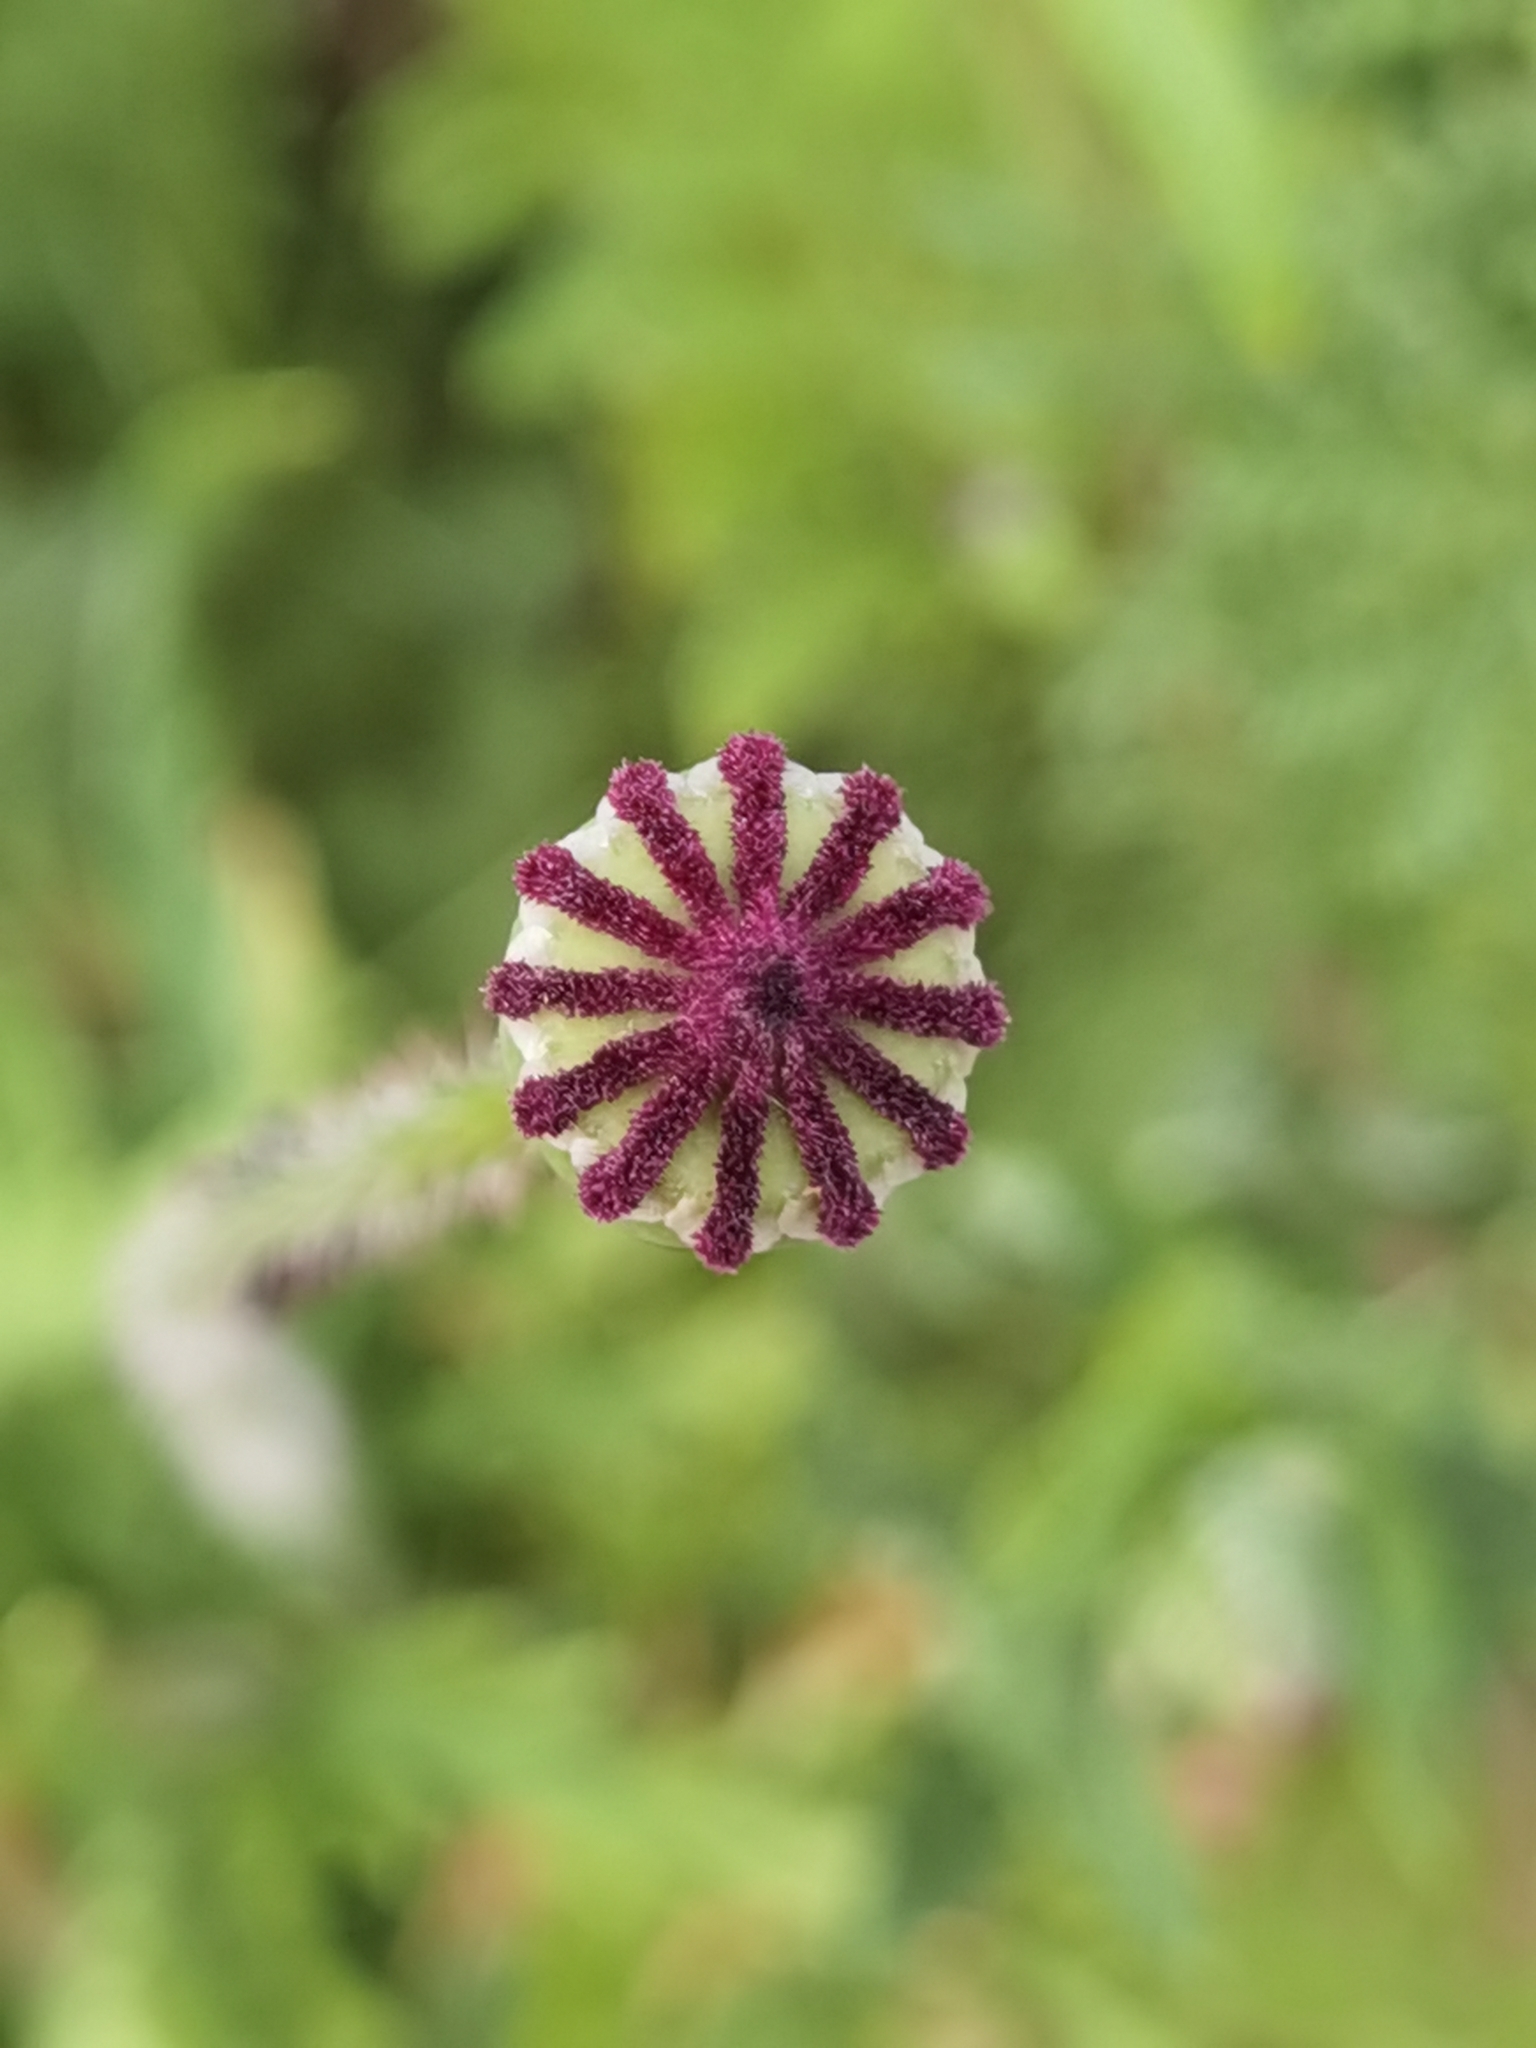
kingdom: Plantae
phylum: Tracheophyta
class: Magnoliopsida
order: Ranunculales
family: Papaveraceae
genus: Papaver
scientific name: Papaver rhoeas
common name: Corn poppy
